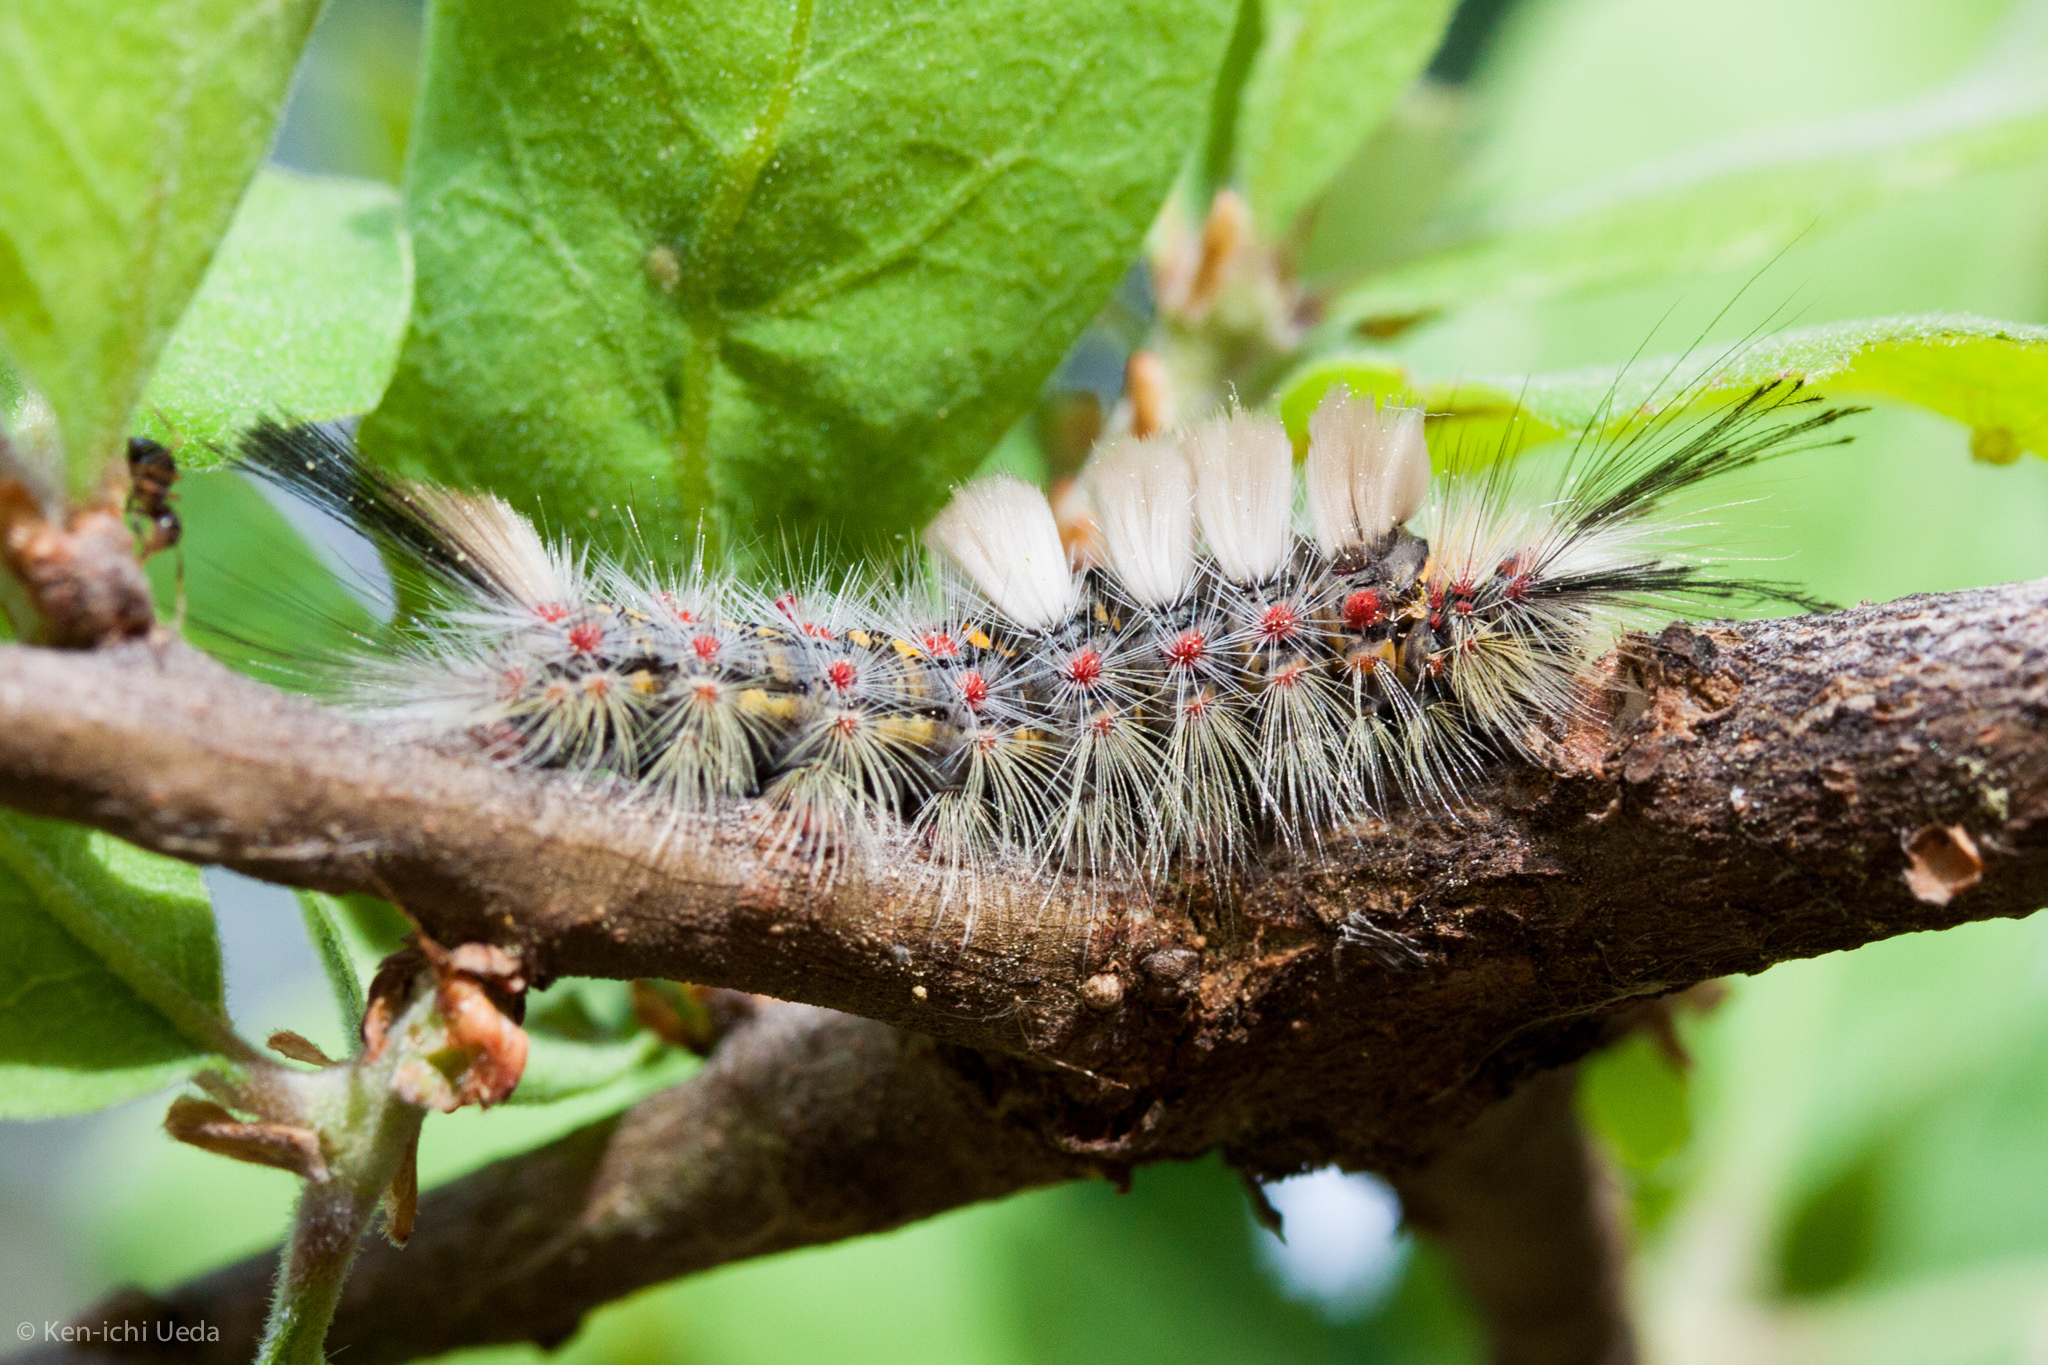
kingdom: Animalia
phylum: Arthropoda
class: Insecta
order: Lepidoptera
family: Erebidae
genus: Orgyia
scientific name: Orgyia vetusta
